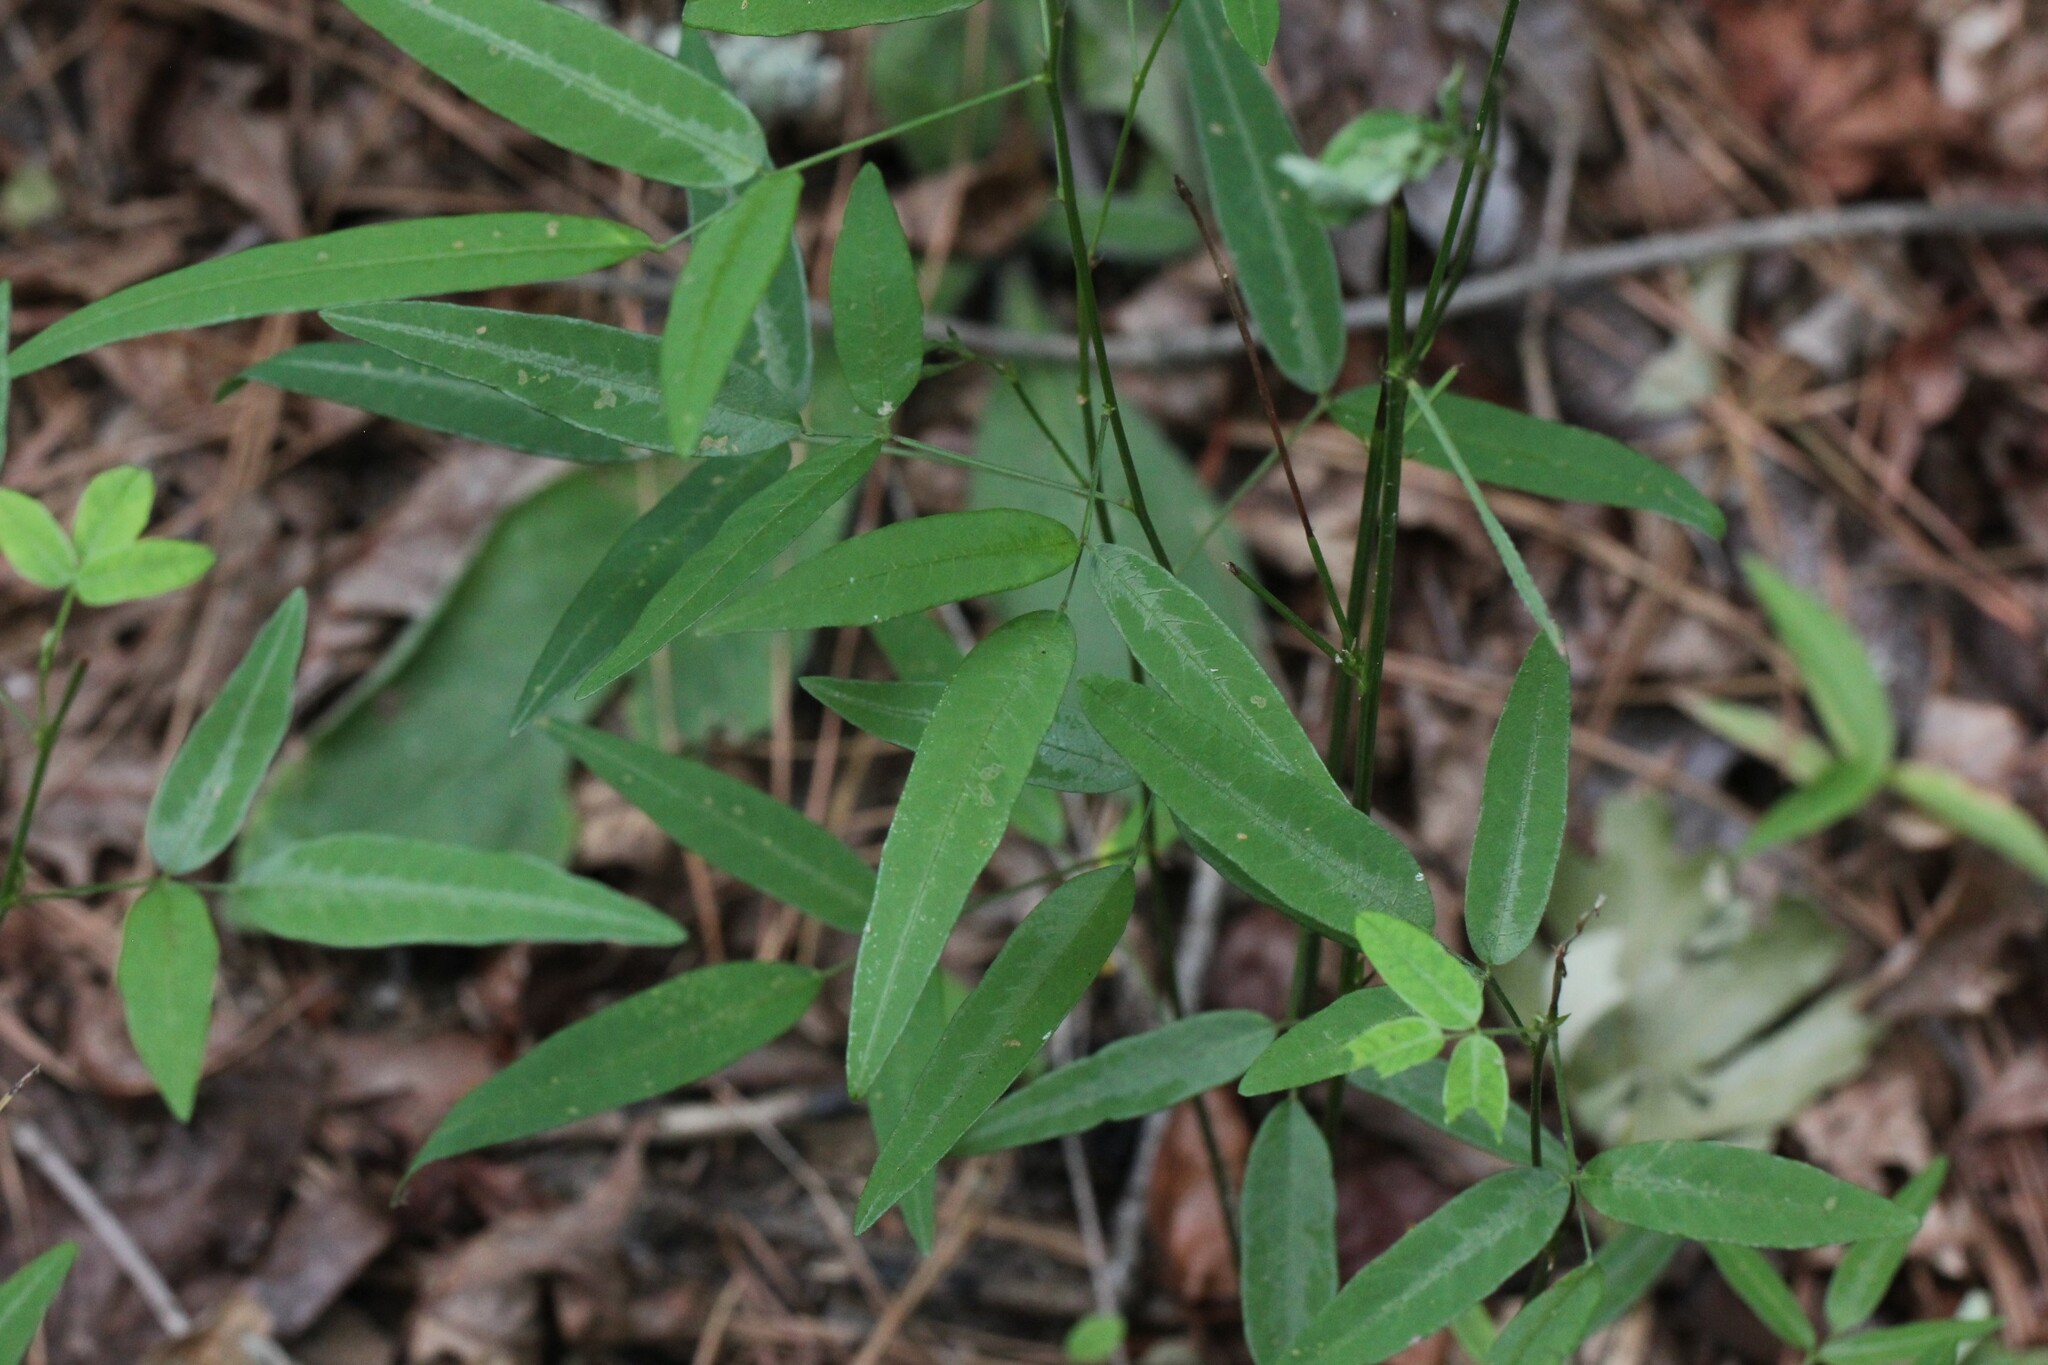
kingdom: Plantae
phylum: Tracheophyta
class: Magnoliopsida
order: Fabales
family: Fabaceae
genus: Desmodium
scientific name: Desmodium paniculatum
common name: Panicled tick-clover
